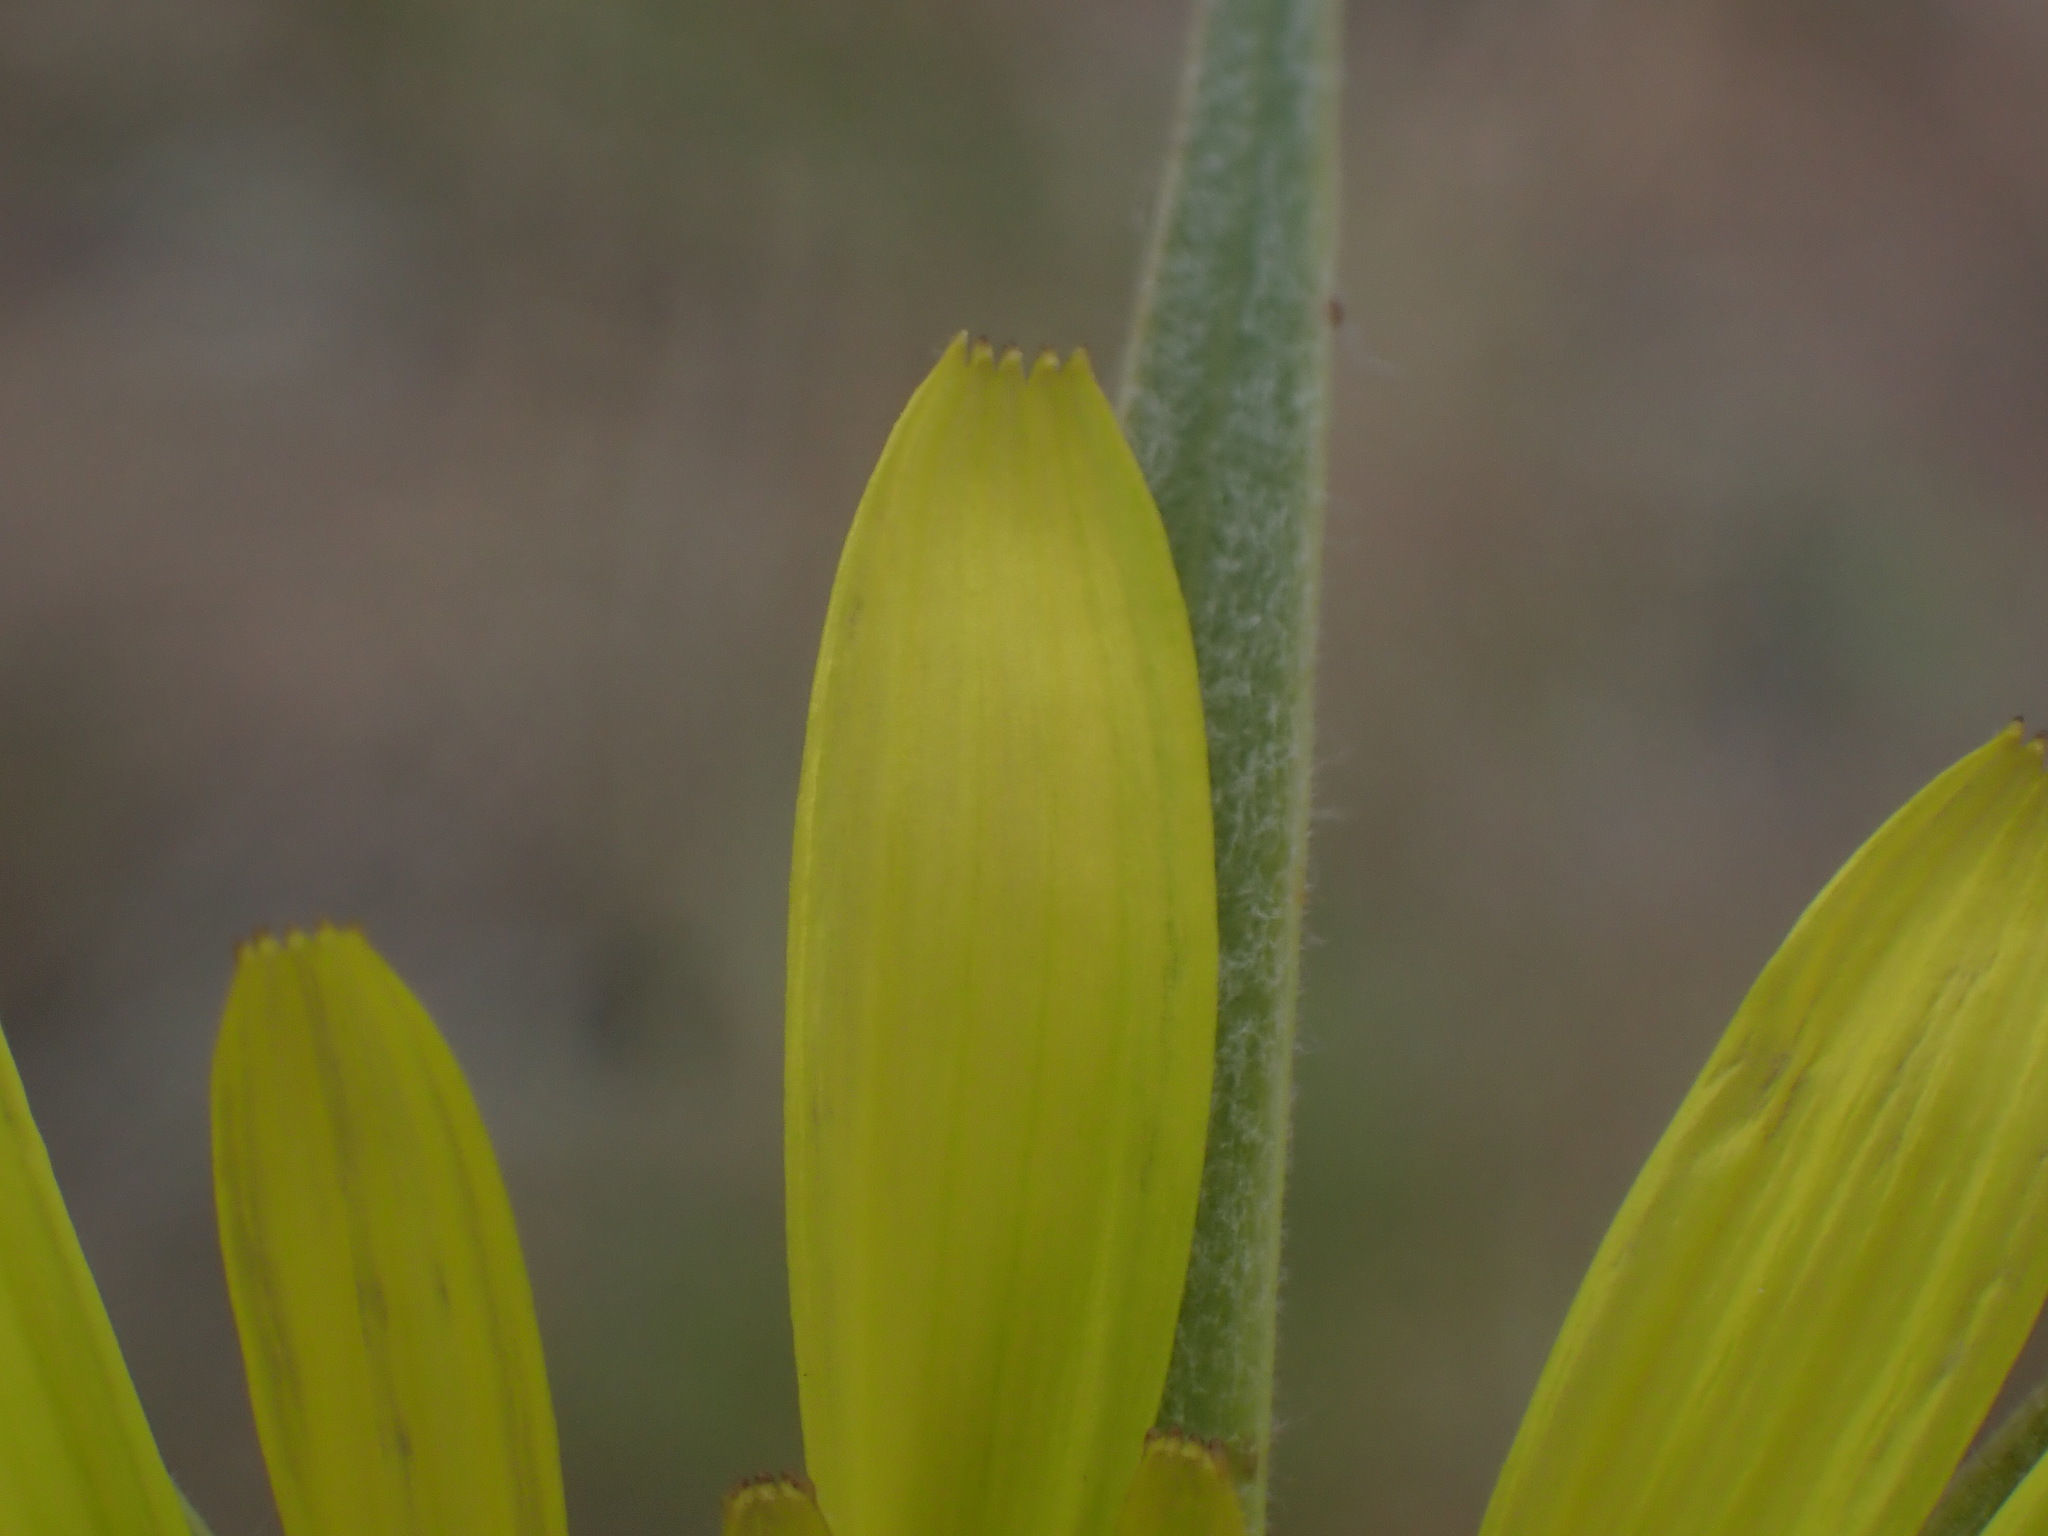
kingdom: Plantae
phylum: Tracheophyta
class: Magnoliopsida
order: Asterales
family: Asteraceae
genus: Tragopogon
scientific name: Tragopogon dubius
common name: Yellow salsify
